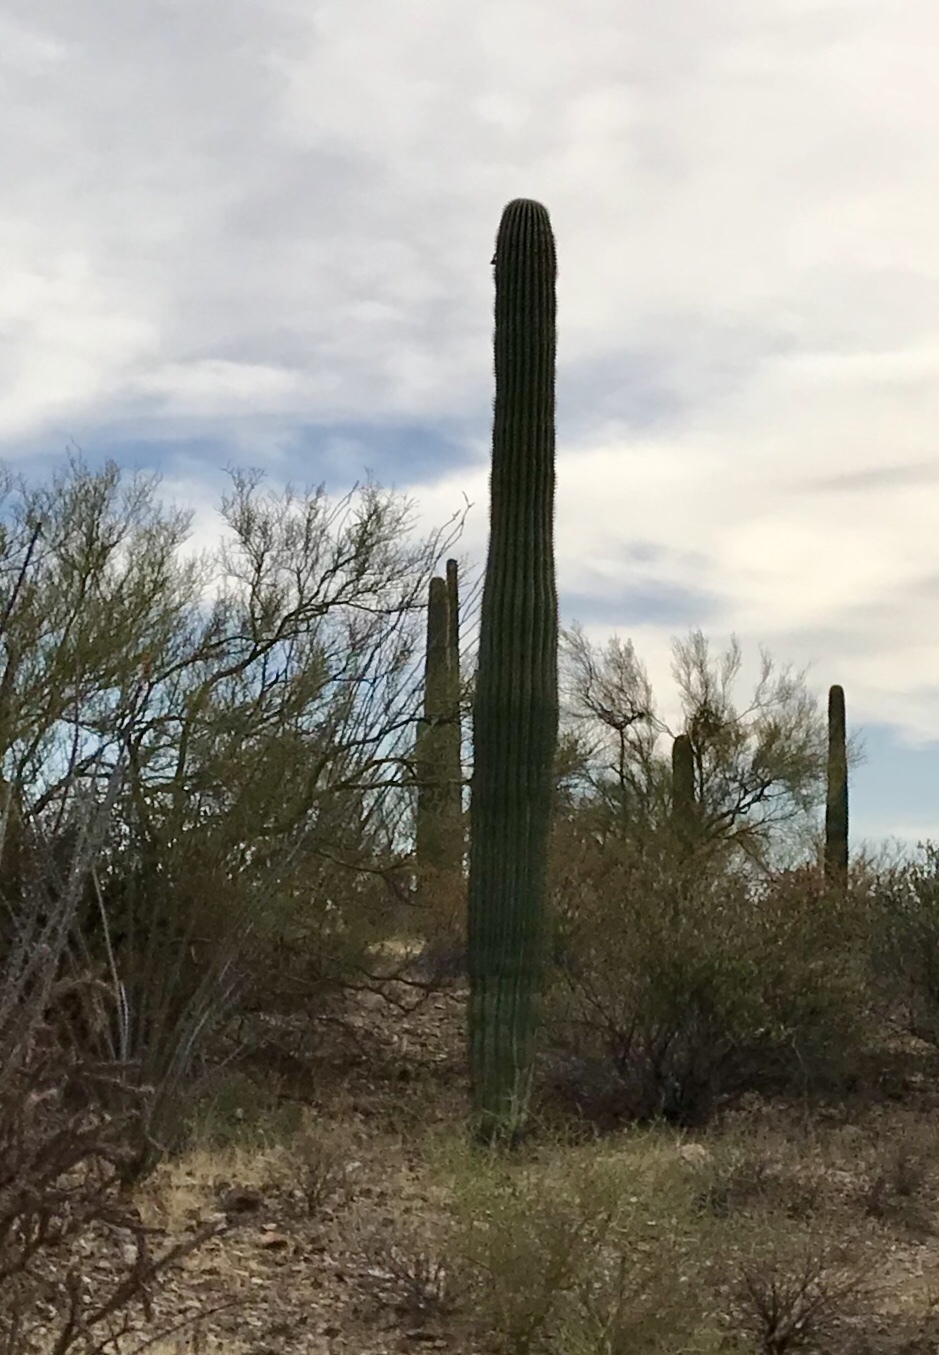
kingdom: Plantae
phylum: Tracheophyta
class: Magnoliopsida
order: Caryophyllales
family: Cactaceae
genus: Carnegiea
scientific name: Carnegiea gigantea
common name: Saguaro
